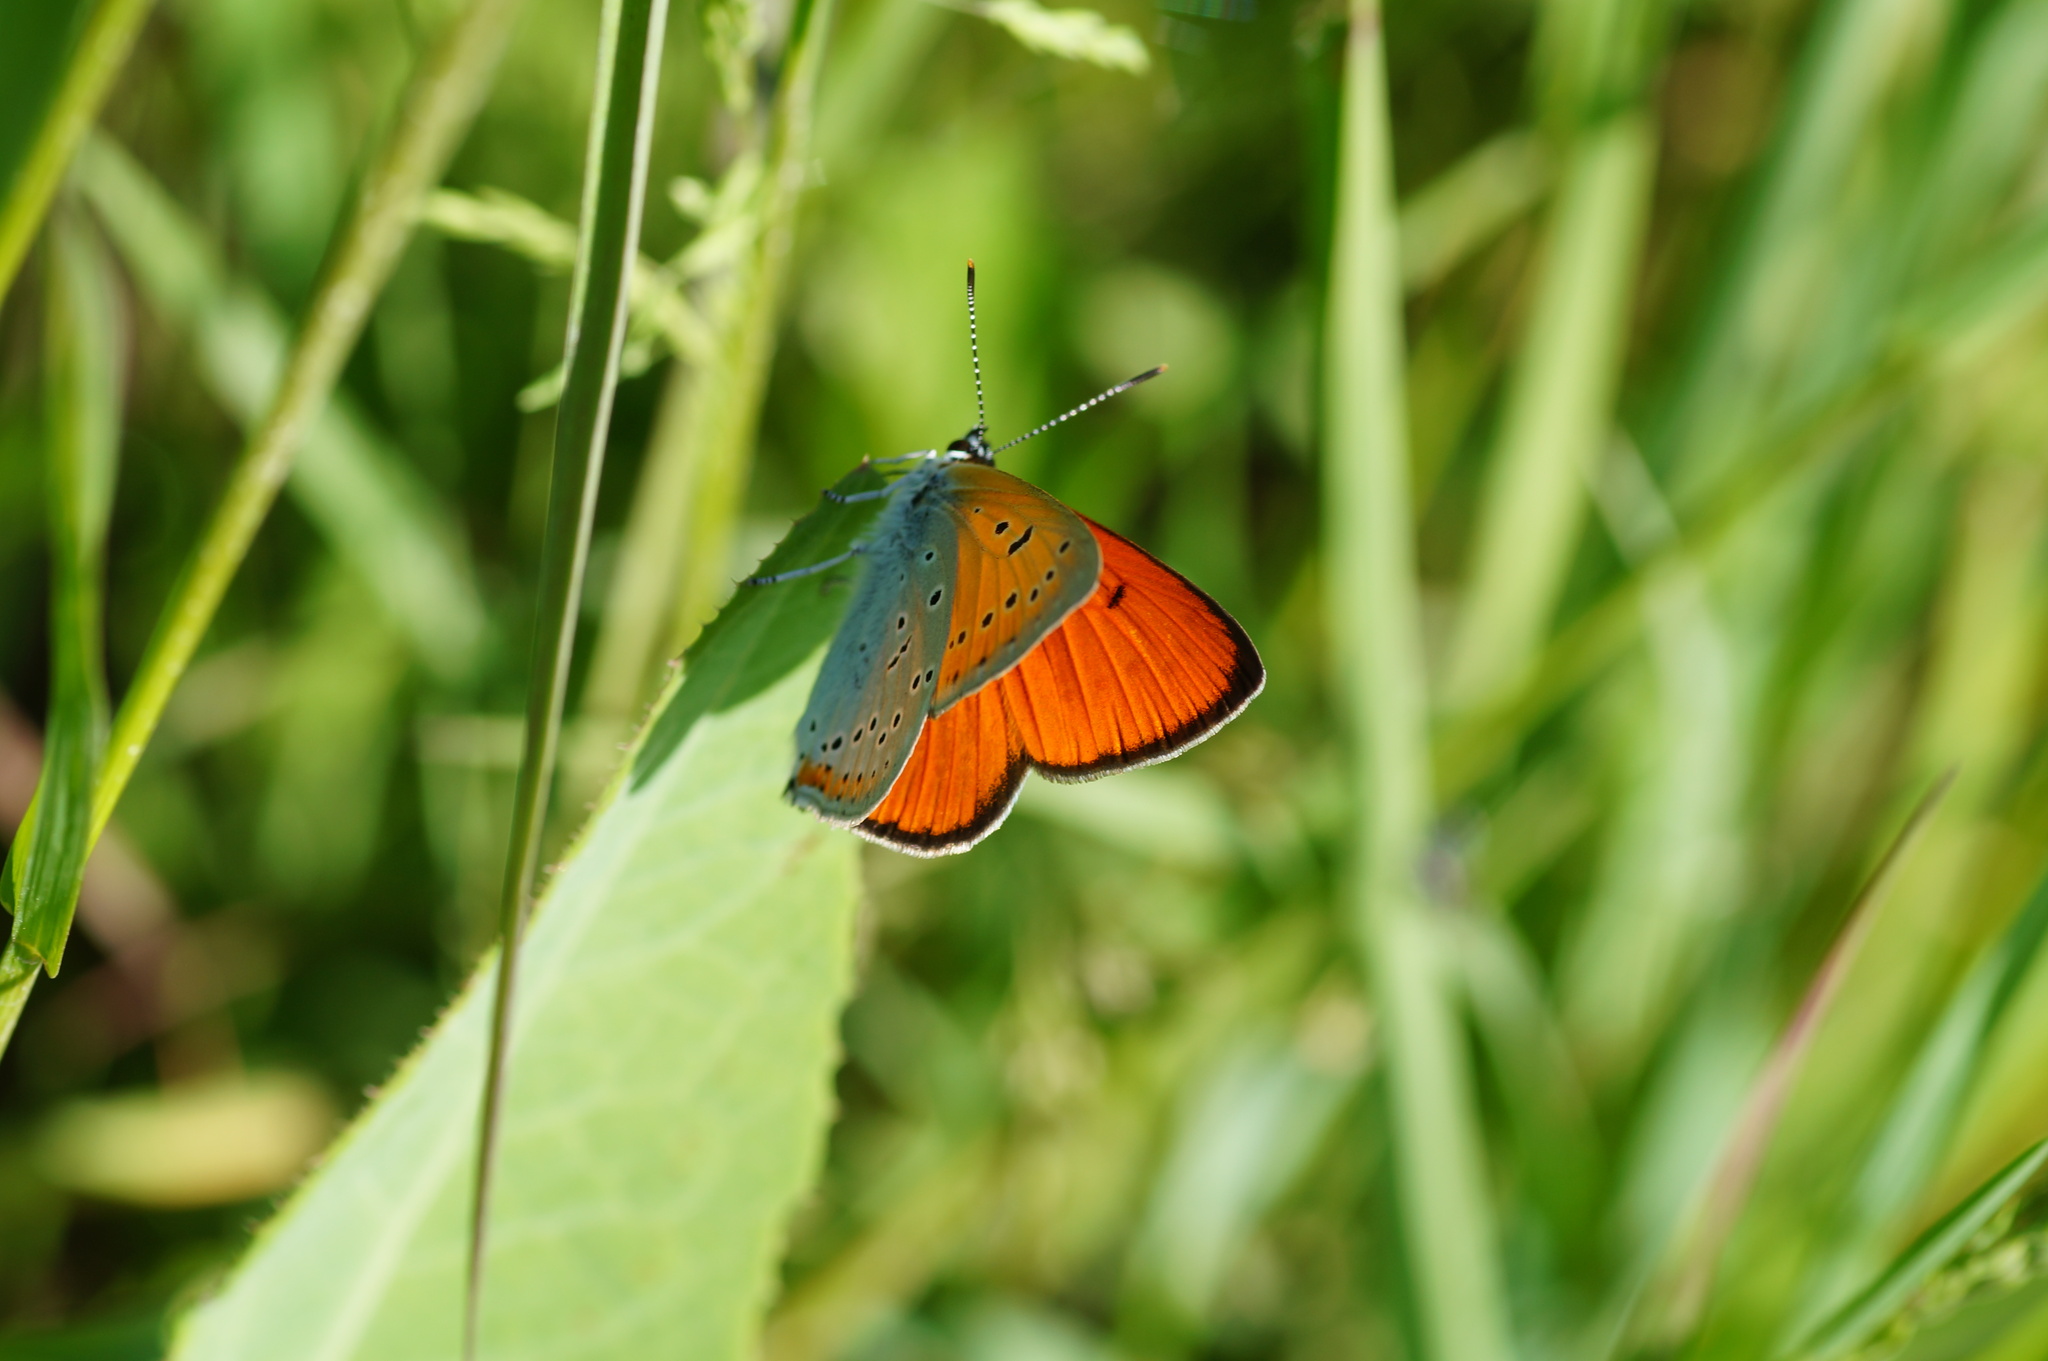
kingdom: Animalia
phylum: Arthropoda
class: Insecta
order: Lepidoptera
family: Lycaenidae
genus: Lycaena
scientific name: Lycaena dispar
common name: Large copper
